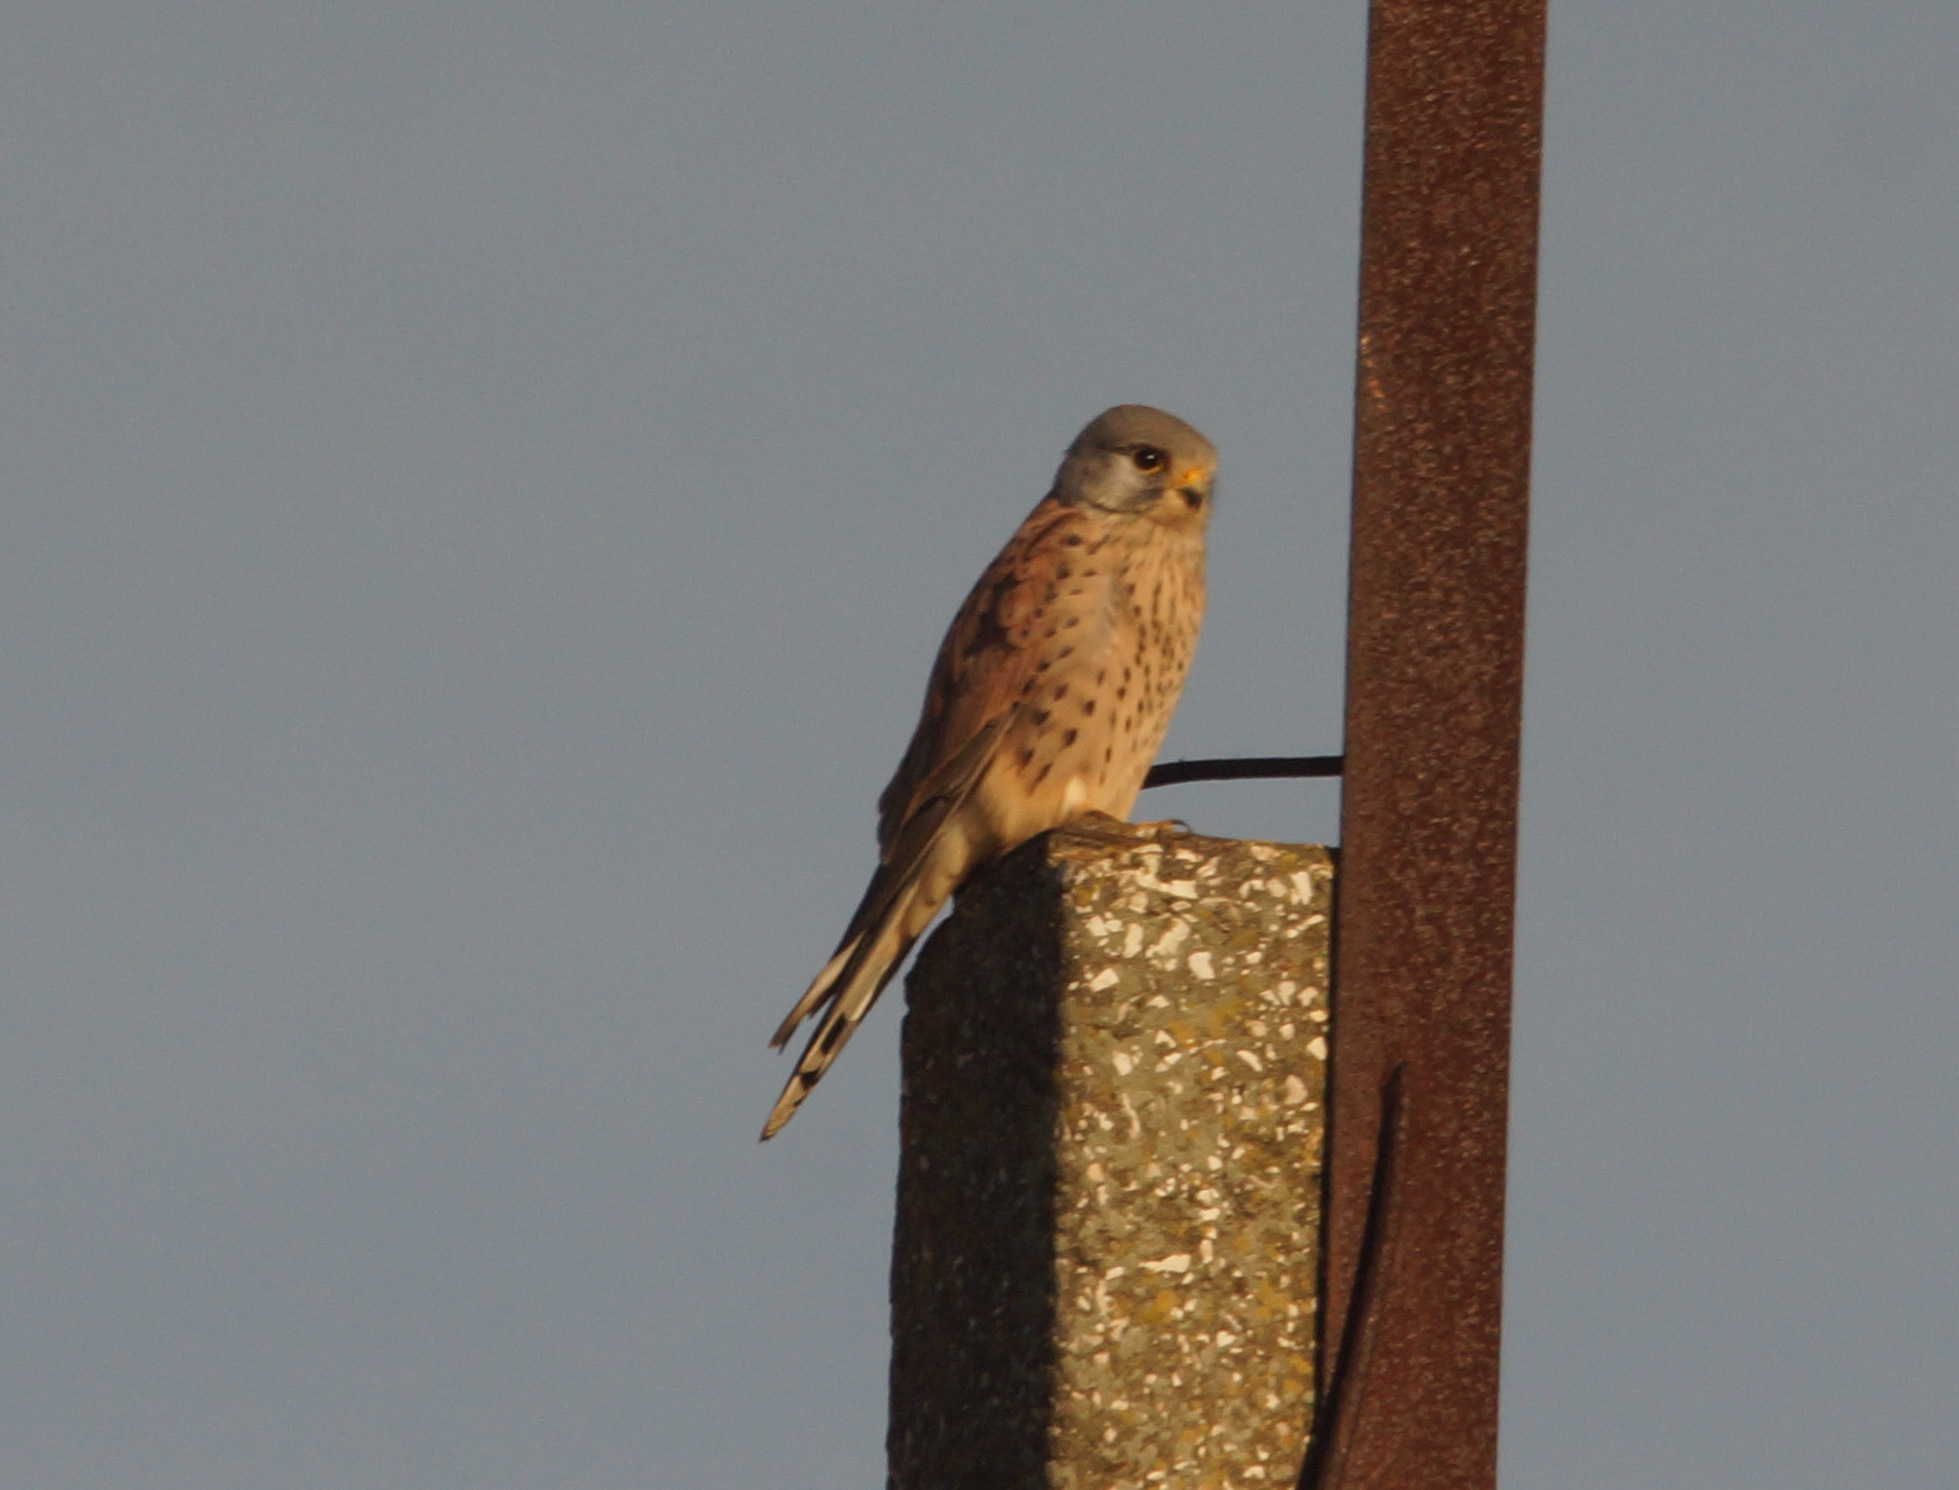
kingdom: Animalia
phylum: Chordata
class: Aves
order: Falconiformes
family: Falconidae
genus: Falco
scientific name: Falco tinnunculus
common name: Common kestrel
